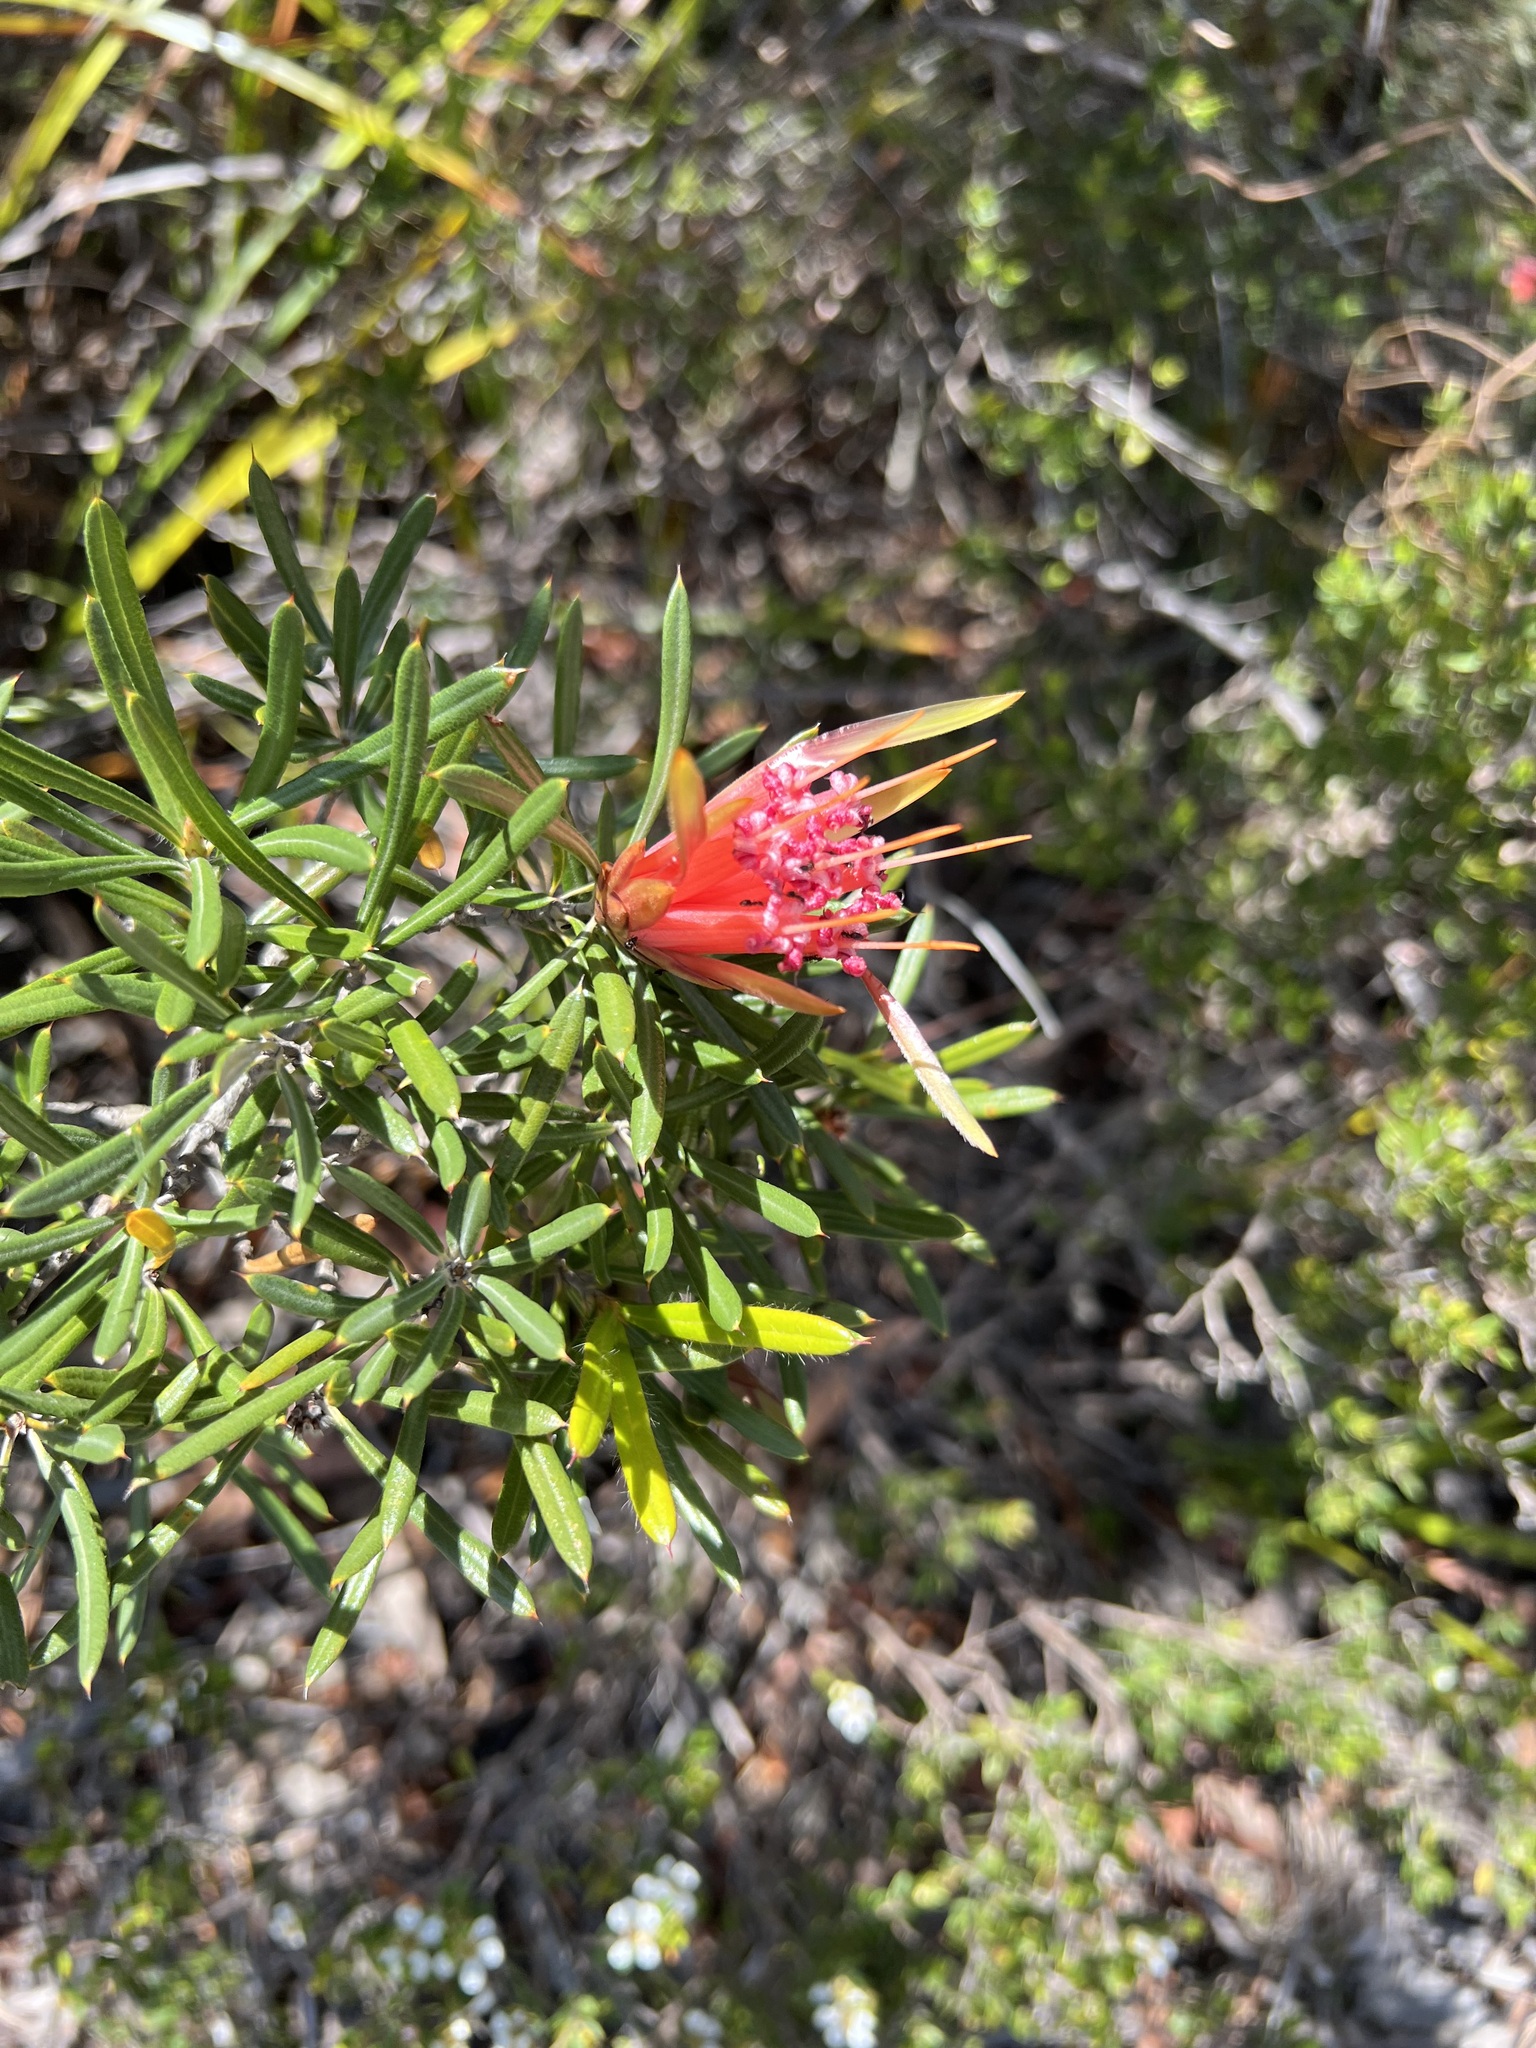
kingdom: Plantae
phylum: Tracheophyta
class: Magnoliopsida
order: Proteales
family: Proteaceae
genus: Lambertia
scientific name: Lambertia formosa
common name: Mountain-devil
